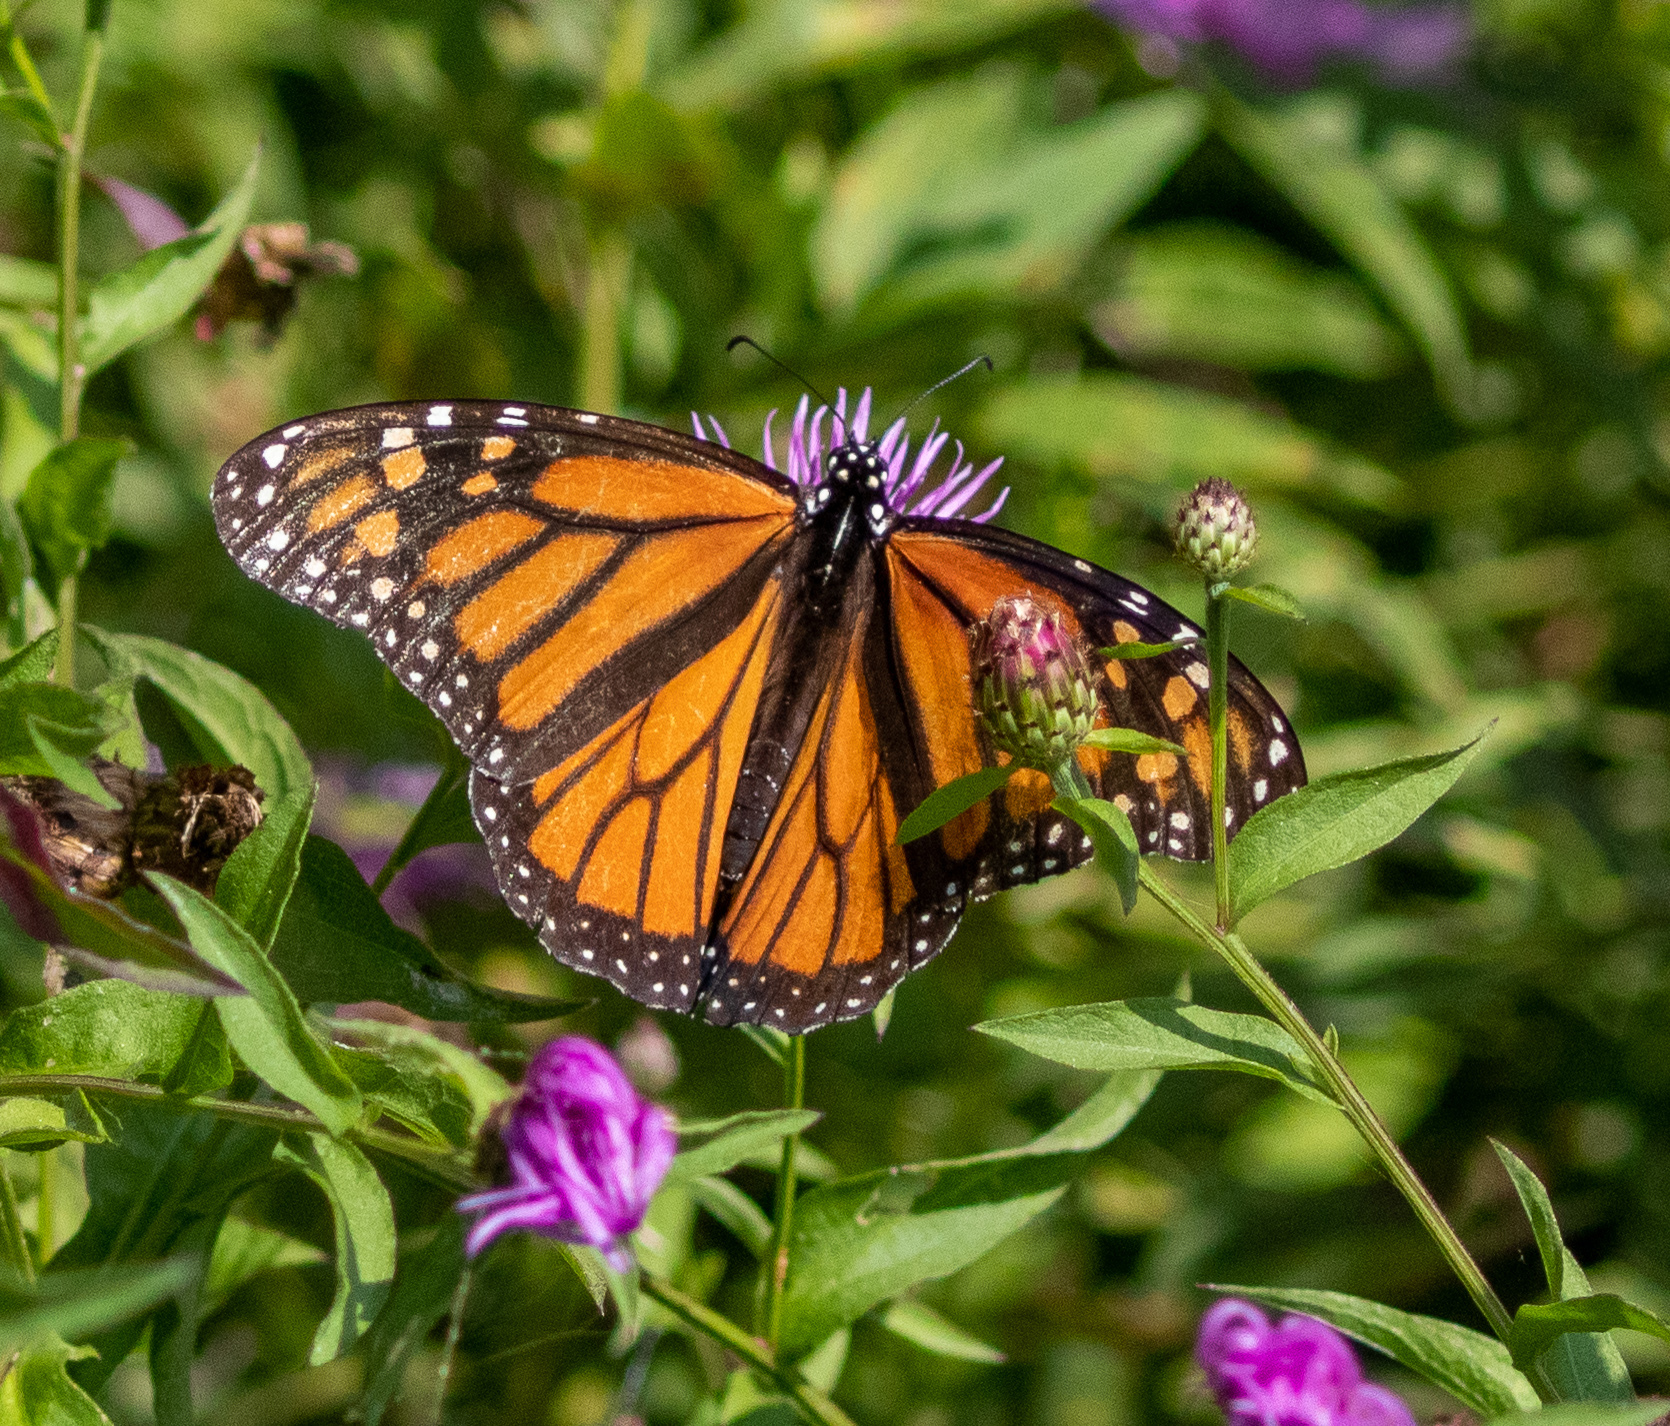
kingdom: Animalia
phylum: Arthropoda
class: Insecta
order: Lepidoptera
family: Nymphalidae
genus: Danaus
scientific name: Danaus plexippus
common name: Monarch
